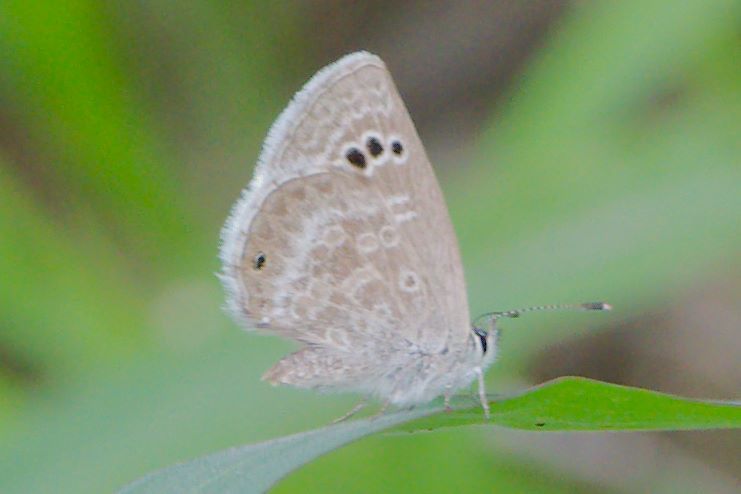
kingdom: Animalia
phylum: Arthropoda
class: Insecta
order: Lepidoptera
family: Lycaenidae
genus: Echinargus
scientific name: Echinargus isola
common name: Reakirt's blue
